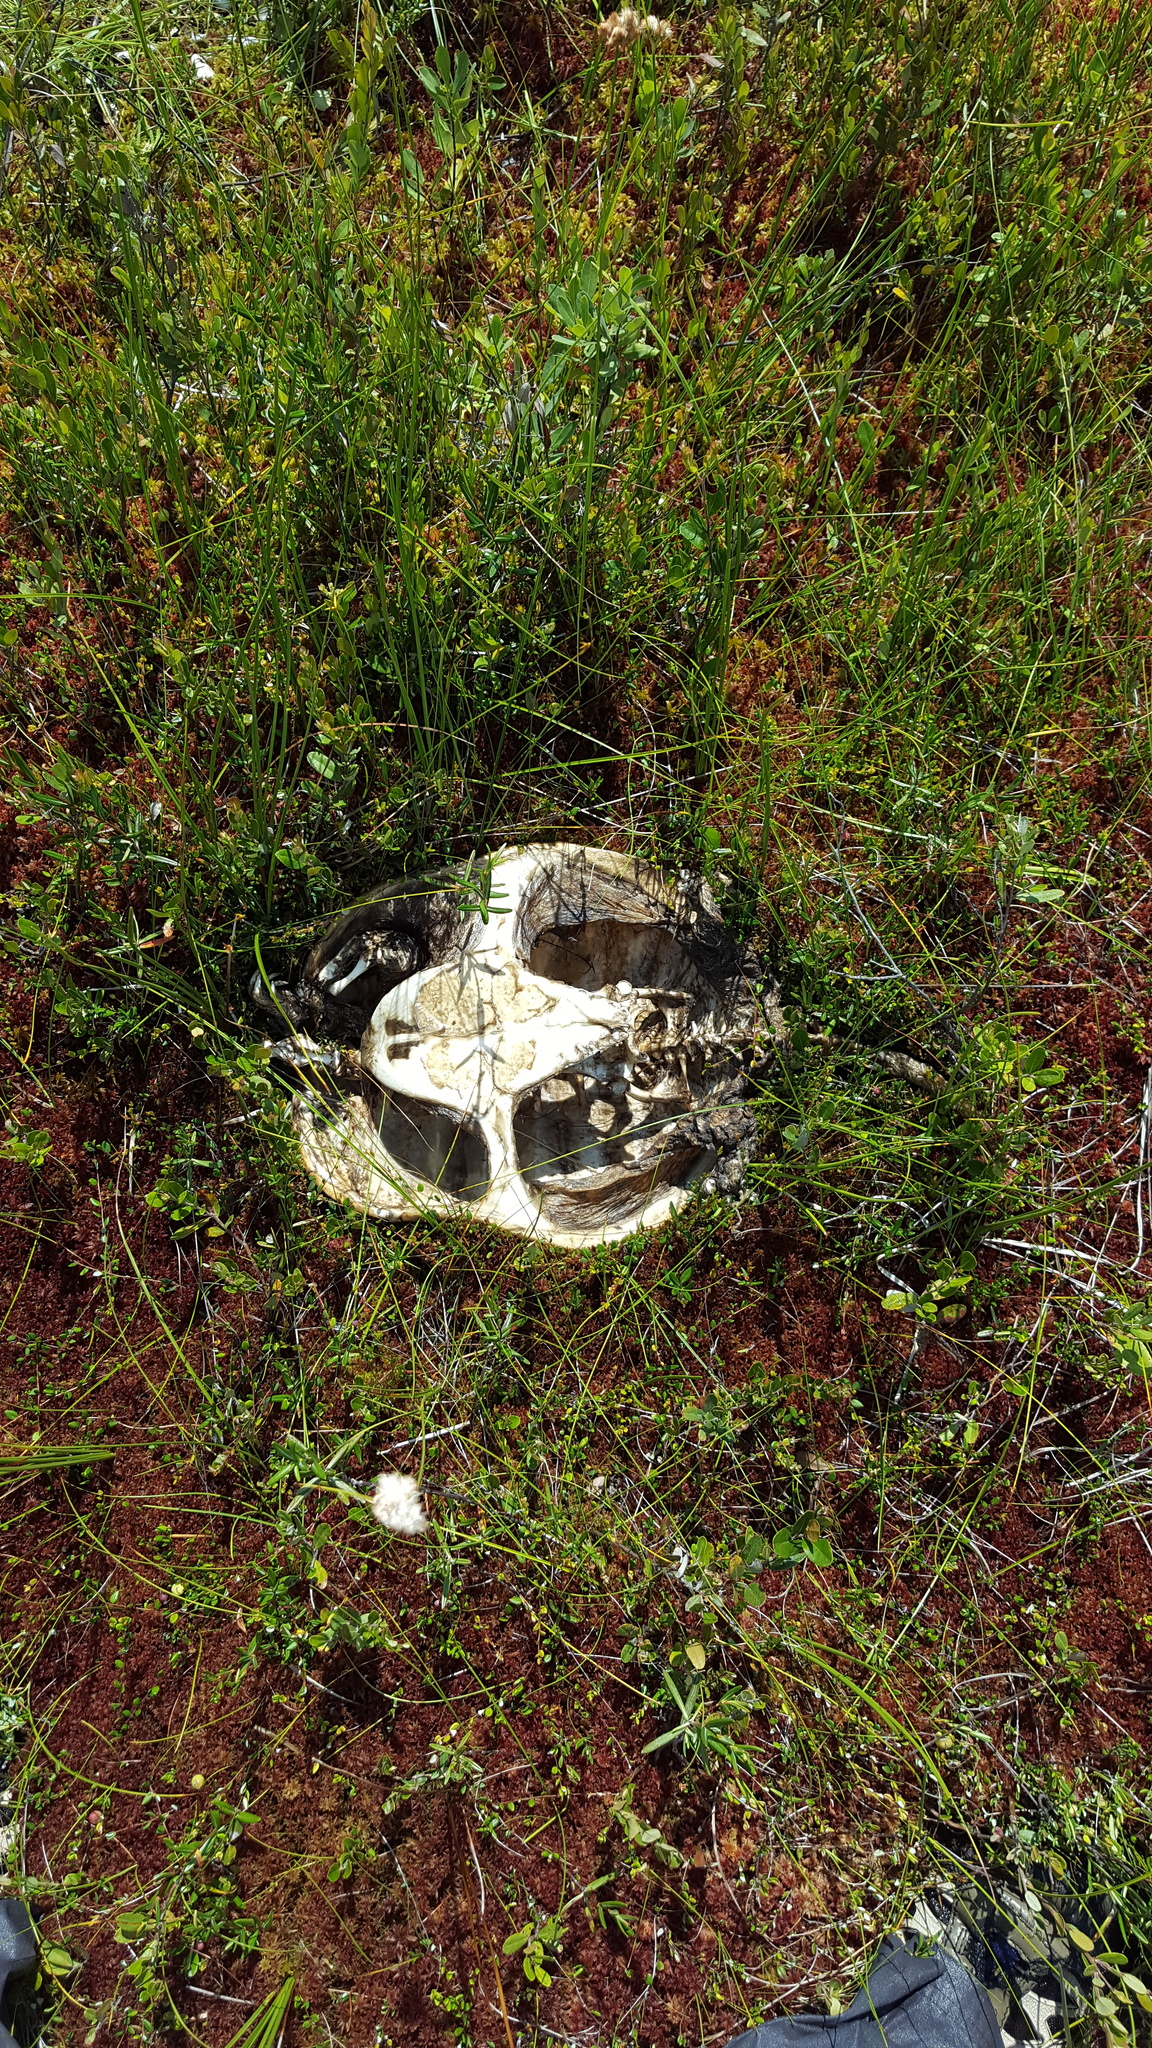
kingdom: Animalia
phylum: Chordata
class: Testudines
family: Chelydridae
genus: Chelydra
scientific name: Chelydra serpentina
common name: Common snapping turtle
